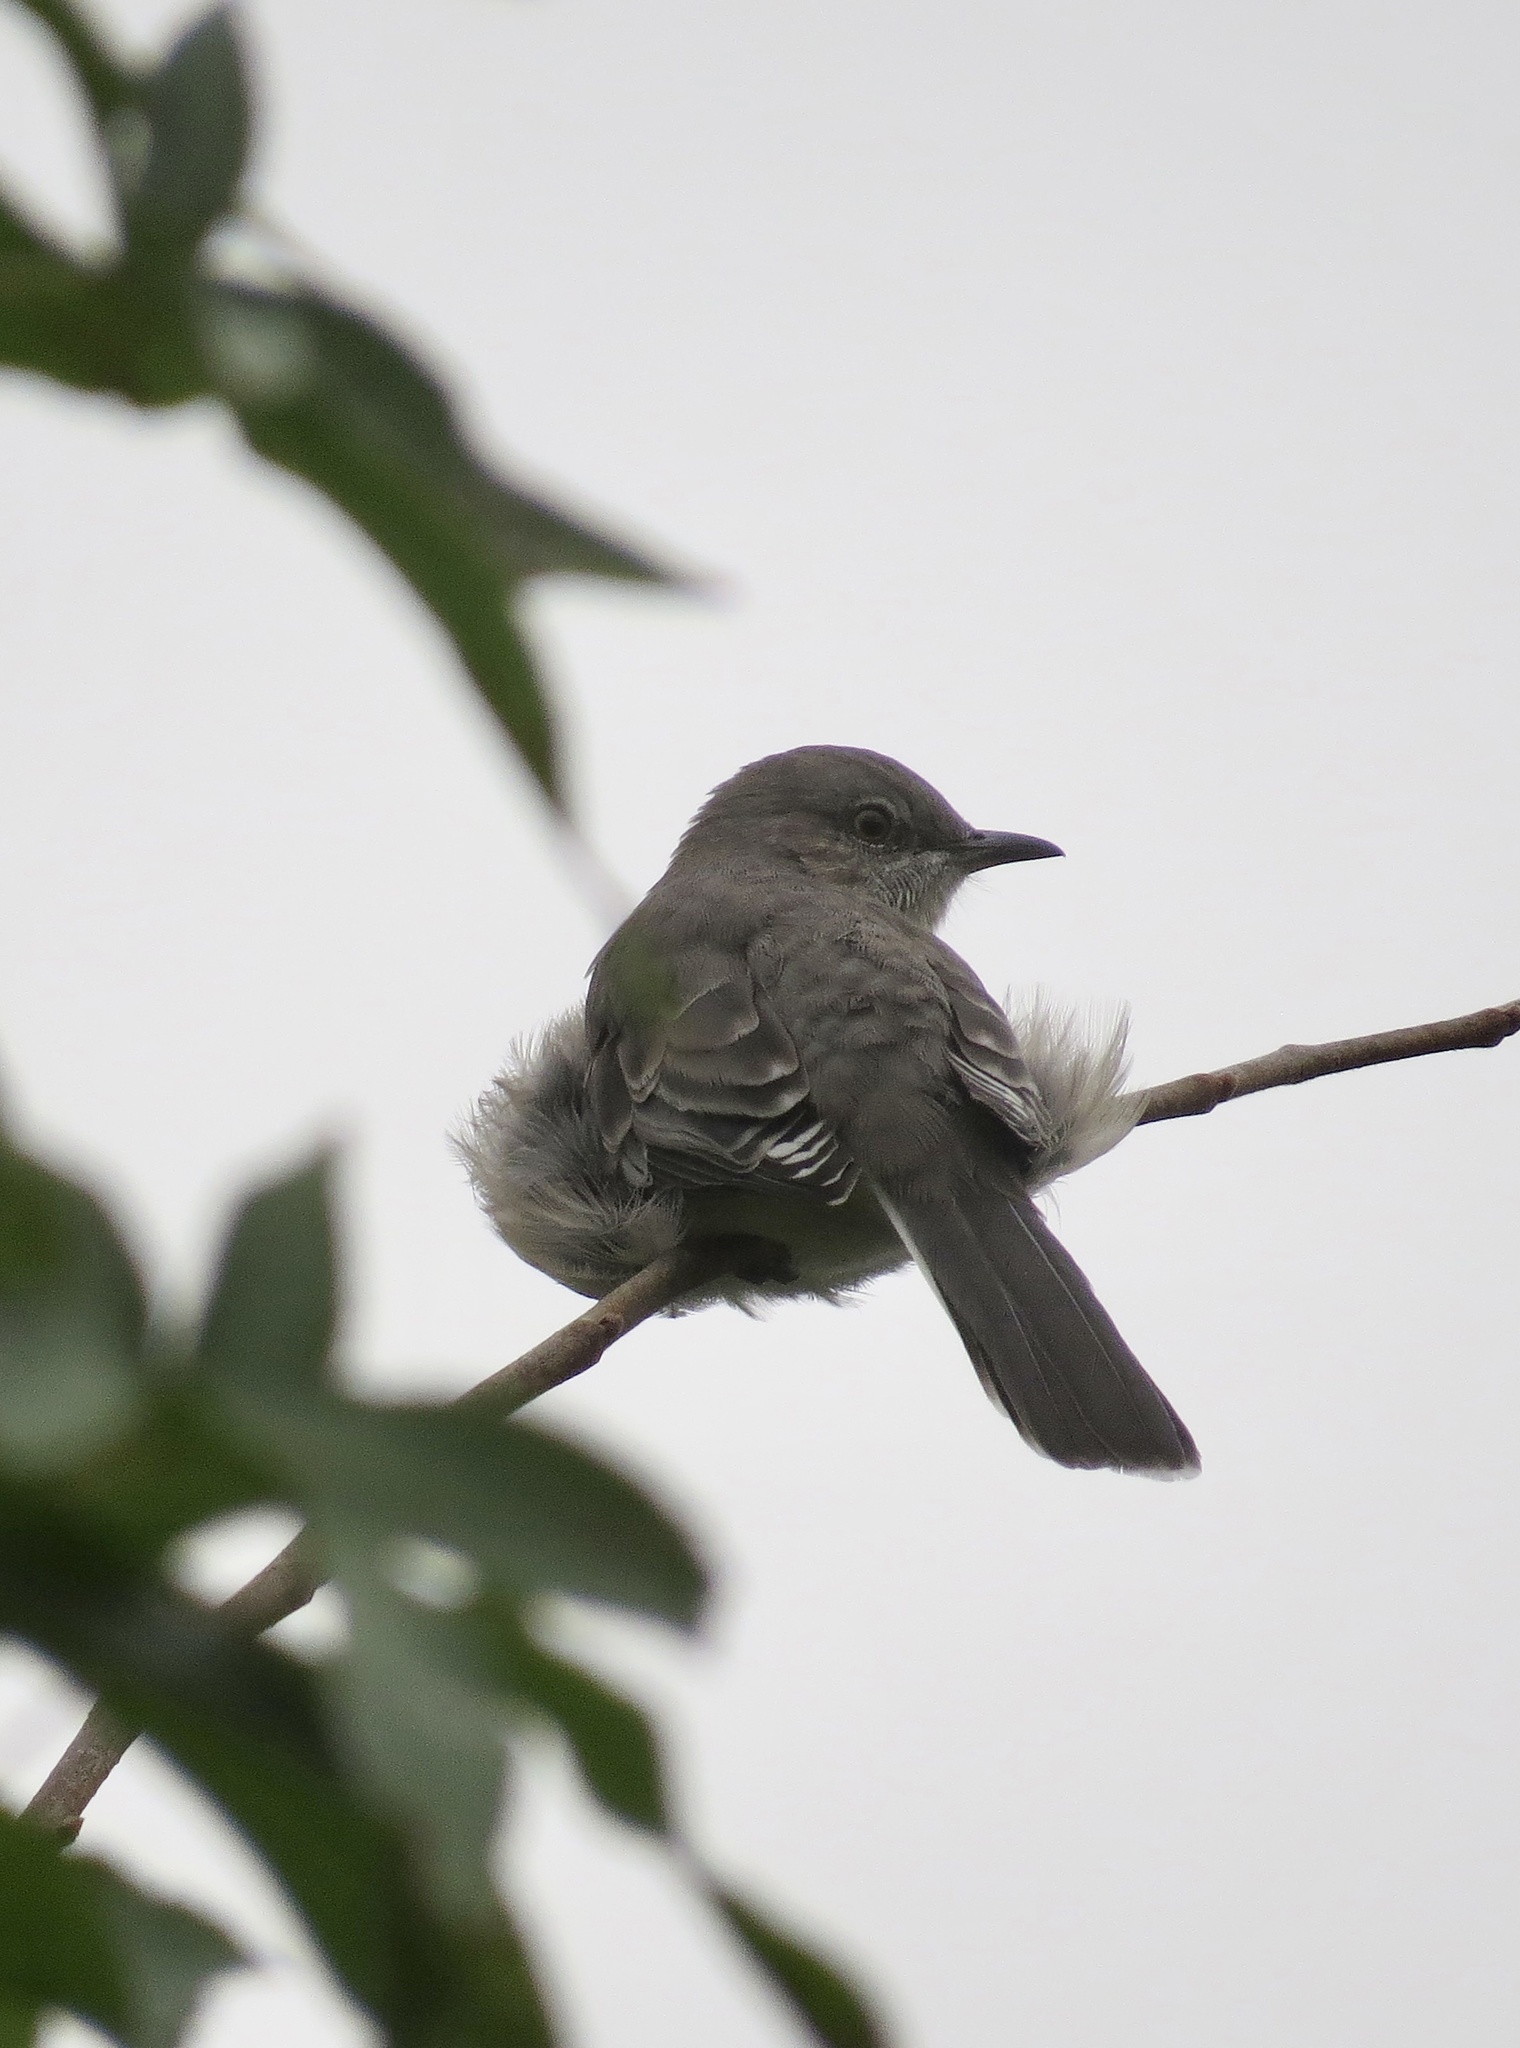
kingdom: Animalia
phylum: Chordata
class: Aves
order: Passeriformes
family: Mimidae
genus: Mimus
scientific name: Mimus polyglottos
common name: Northern mockingbird
